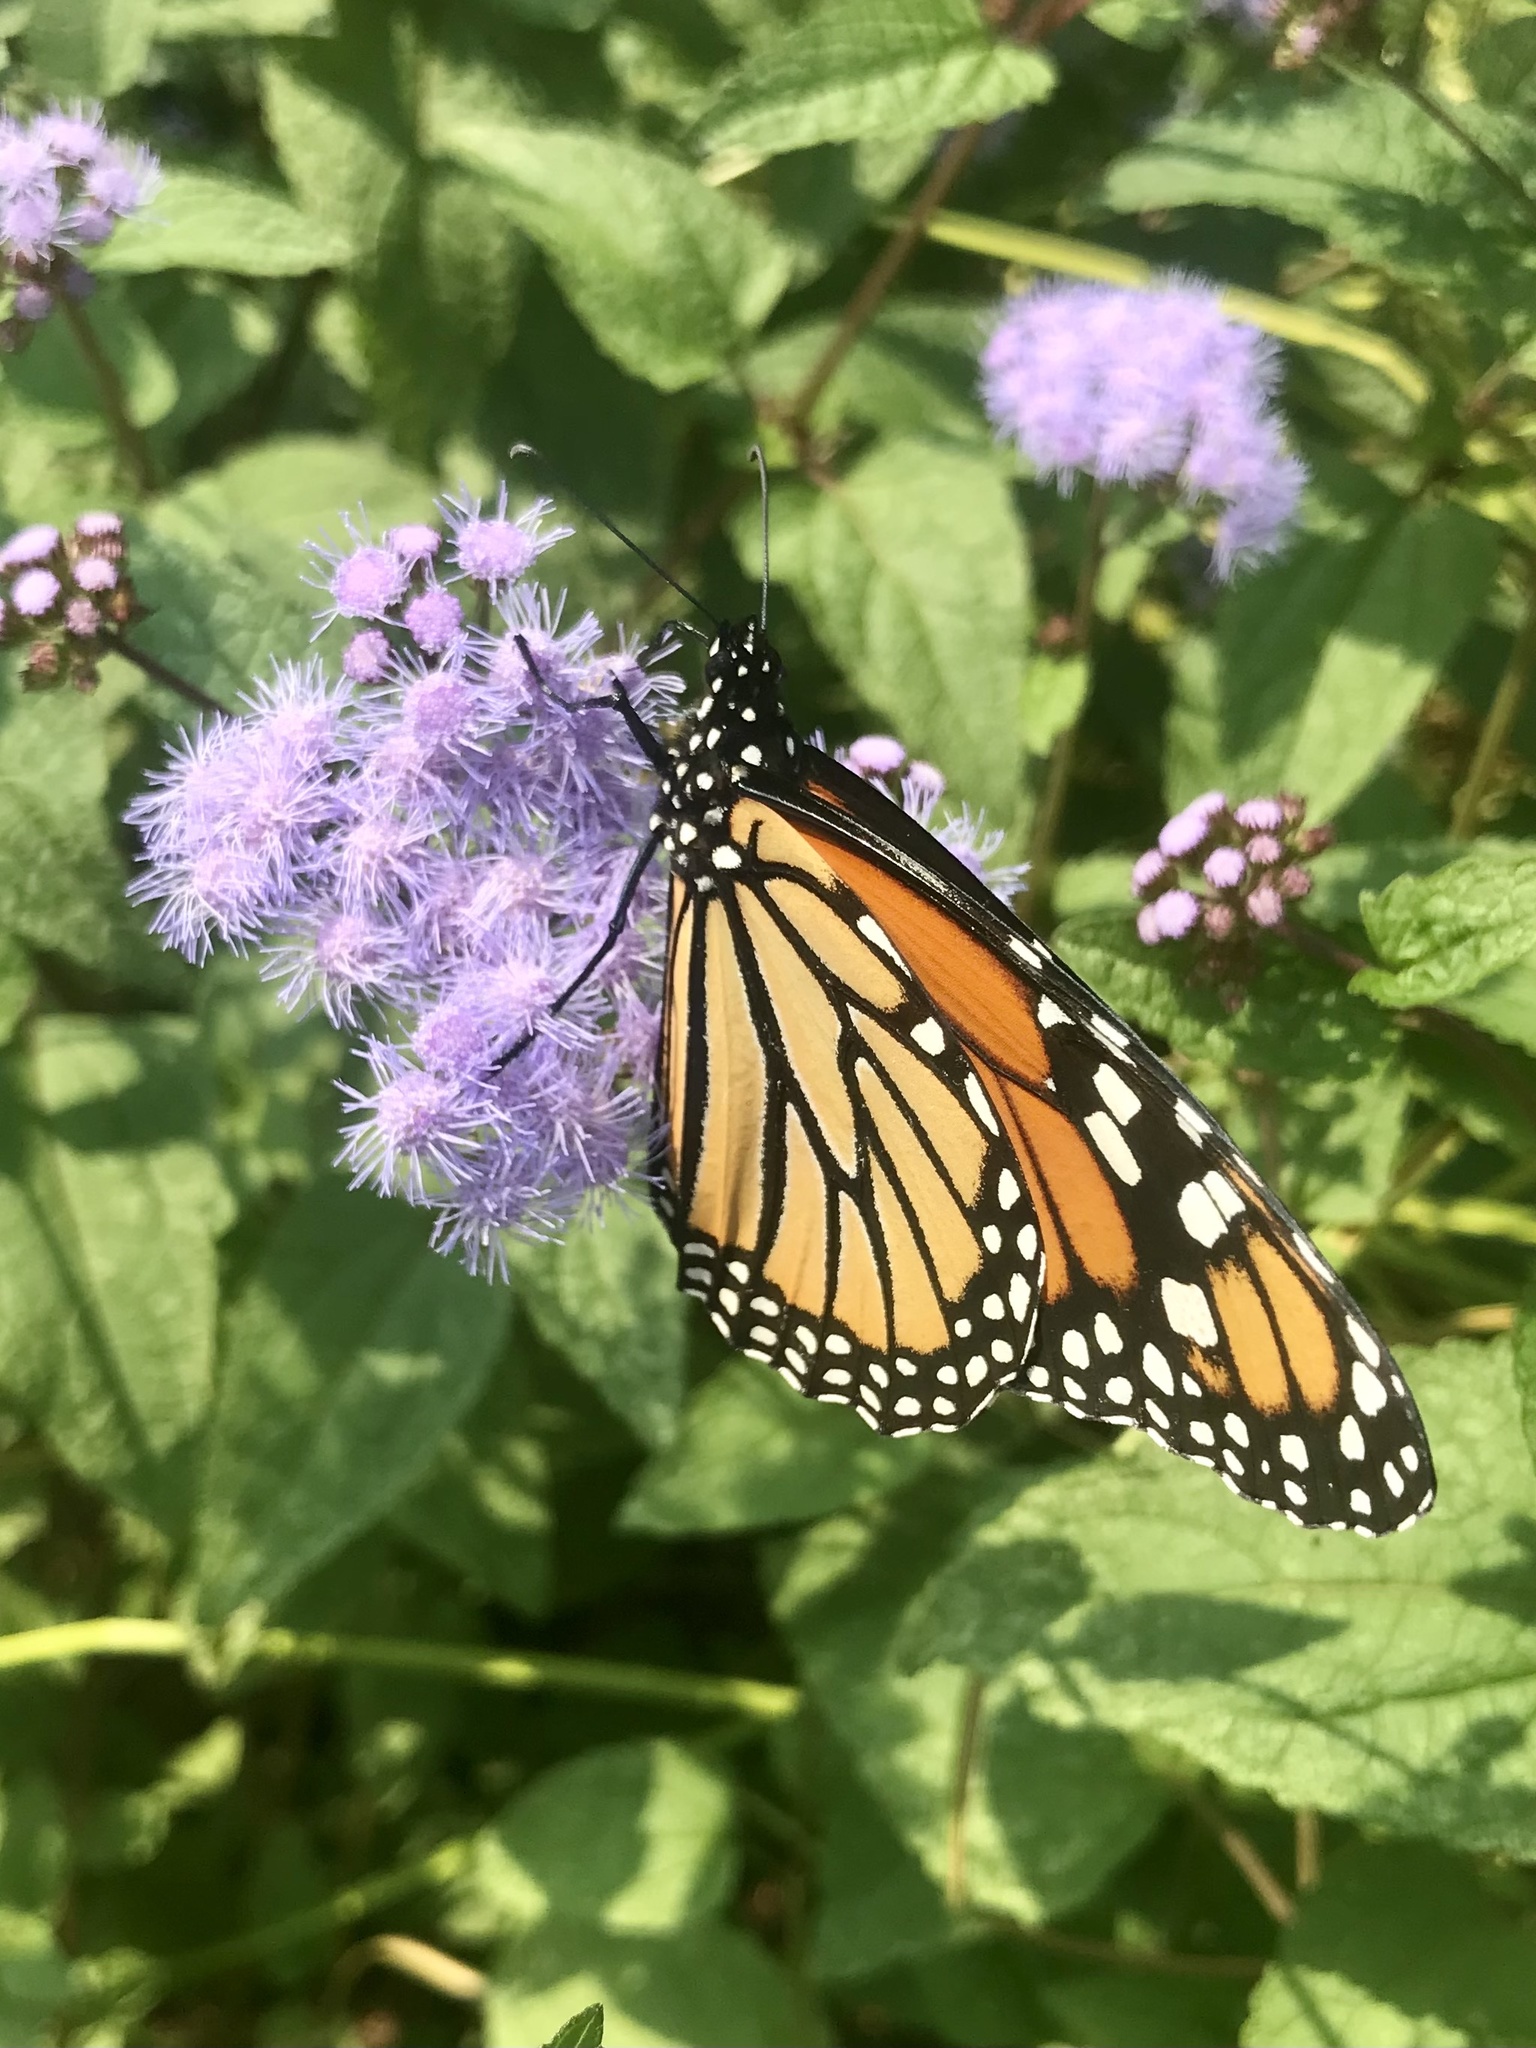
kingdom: Animalia
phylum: Arthropoda
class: Insecta
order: Lepidoptera
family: Nymphalidae
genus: Danaus
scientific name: Danaus plexippus
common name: Monarch
